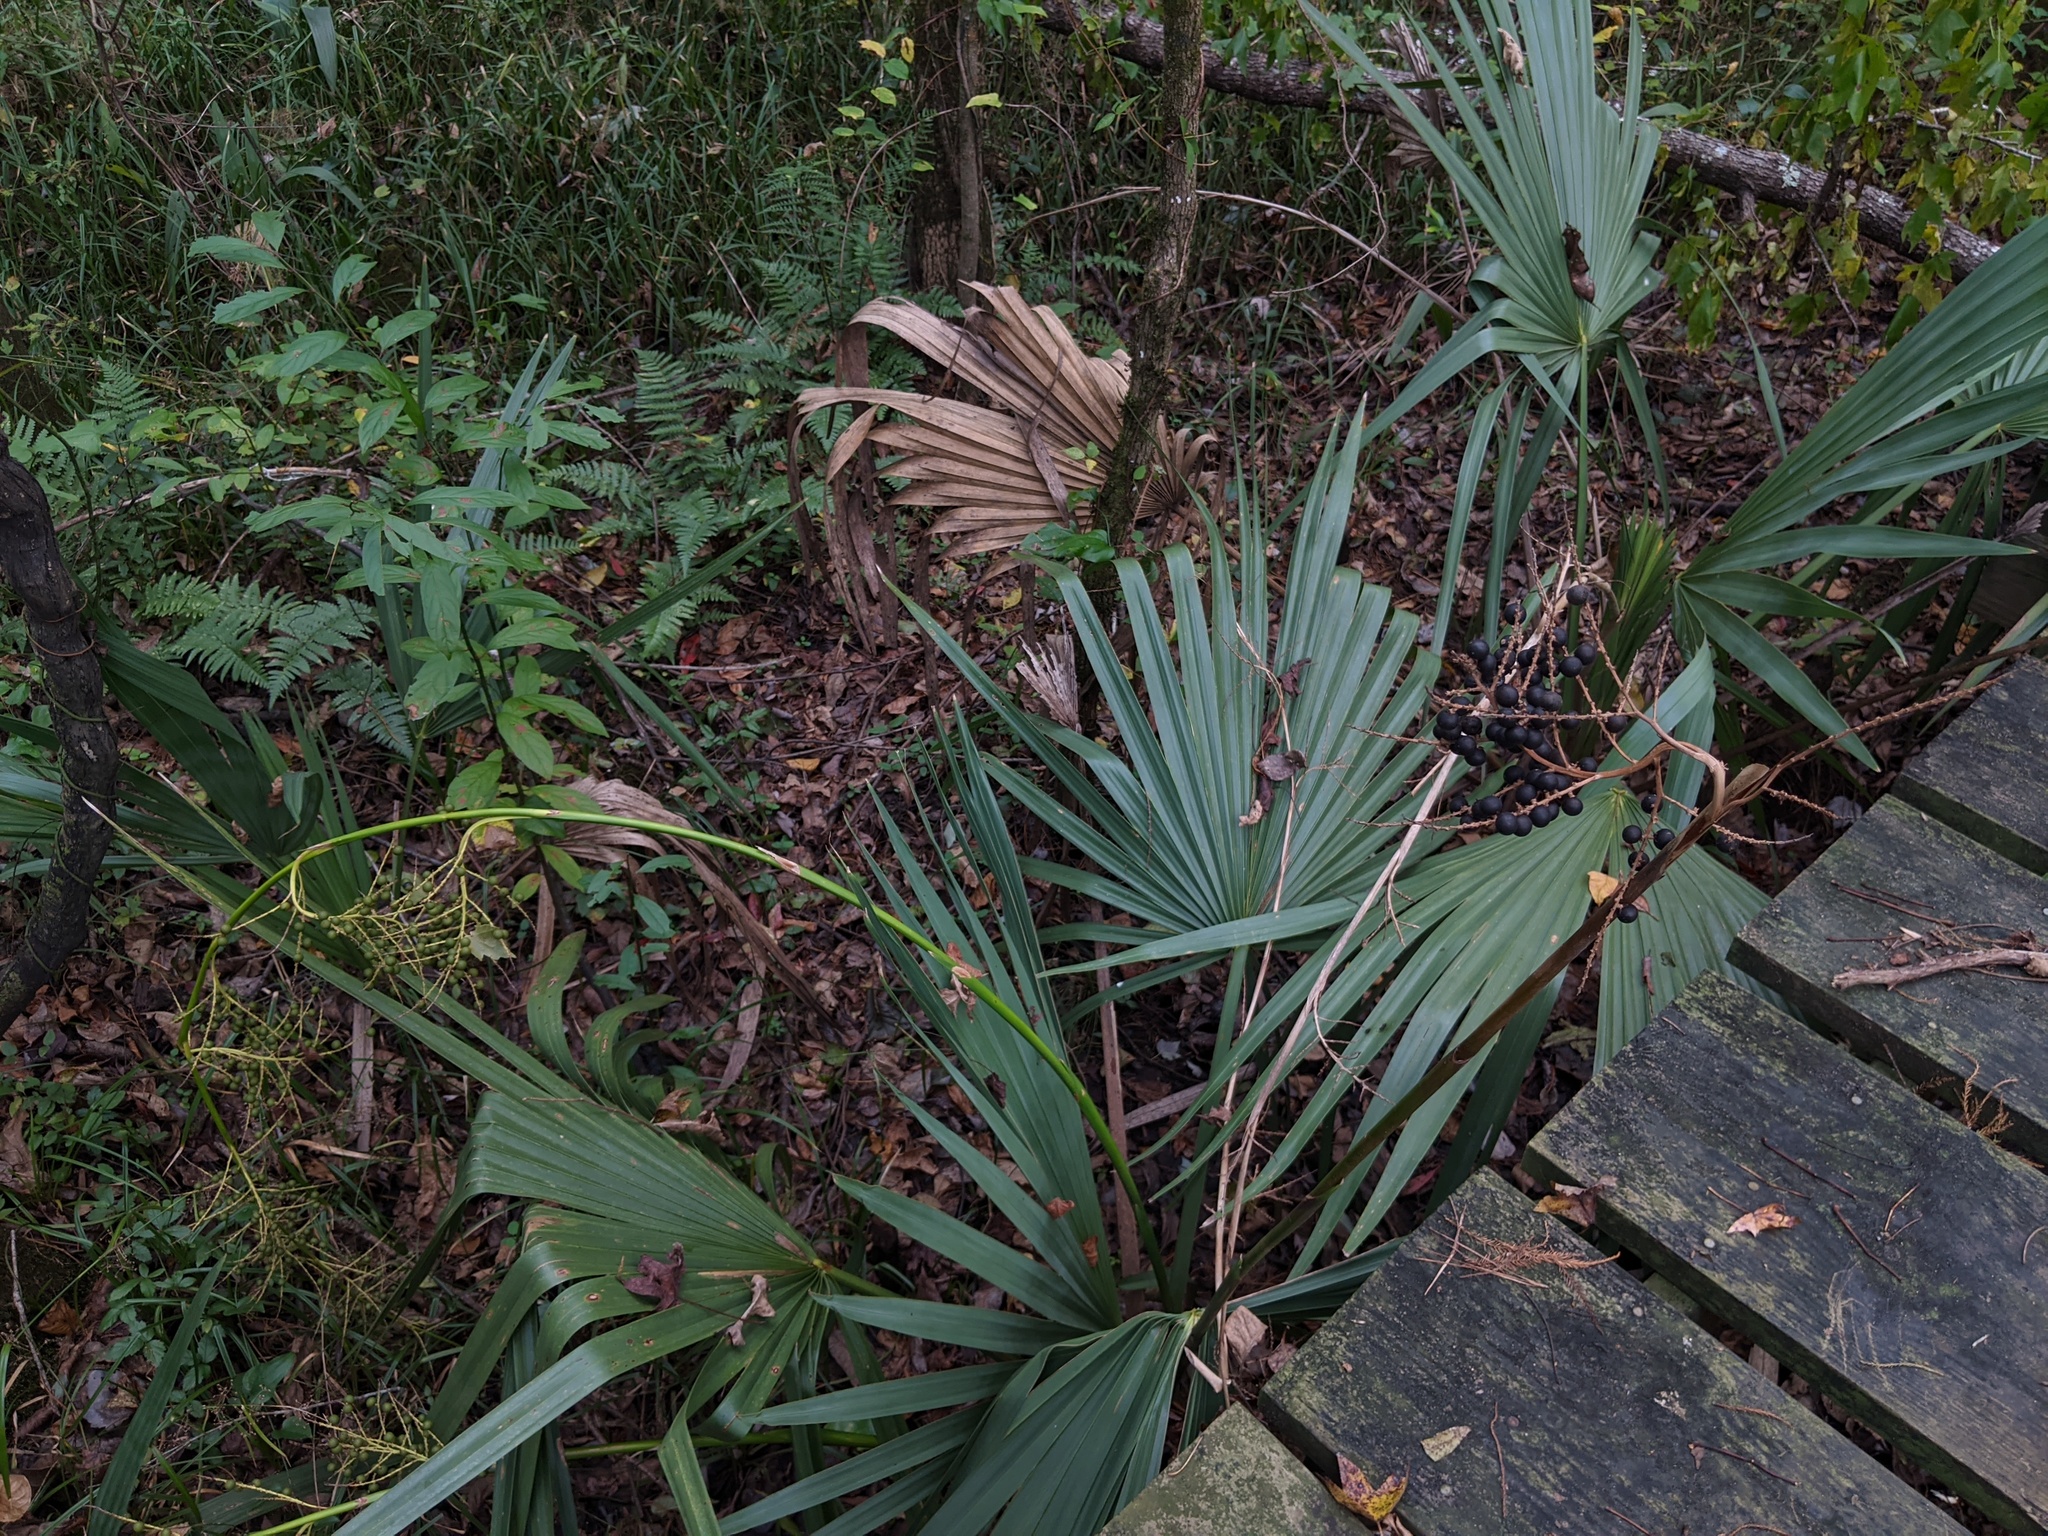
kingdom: Plantae
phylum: Tracheophyta
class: Liliopsida
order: Arecales
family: Arecaceae
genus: Sabal
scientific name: Sabal minor
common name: Dwarf palmetto
